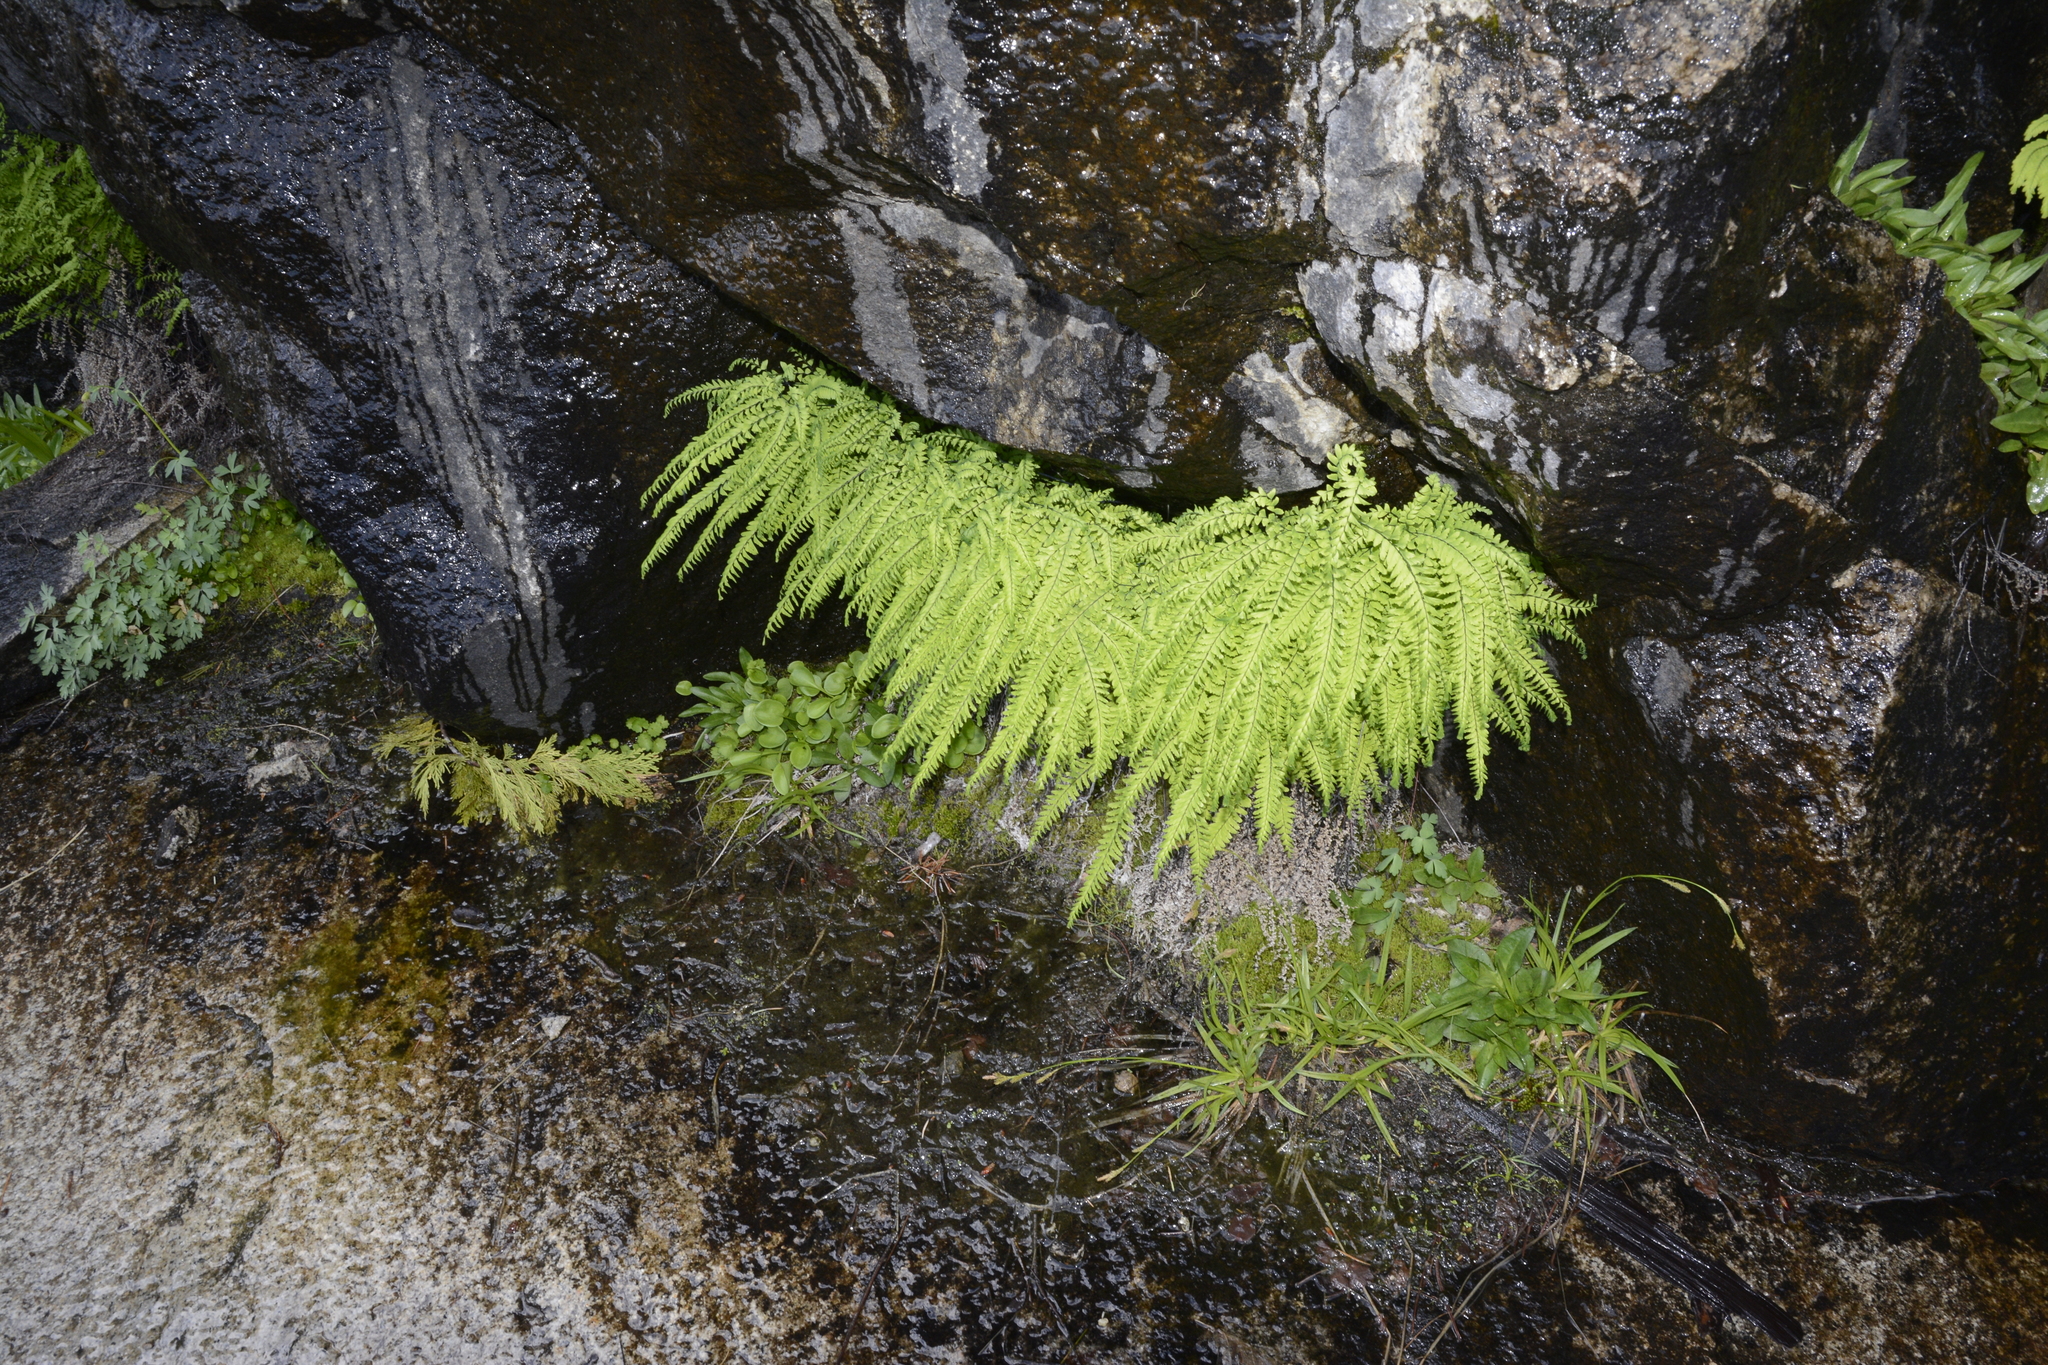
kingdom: Plantae
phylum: Tracheophyta
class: Polypodiopsida
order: Polypodiales
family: Pteridaceae
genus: Adiantum
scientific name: Adiantum aleuticum
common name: Aleutian maidenhair fern
